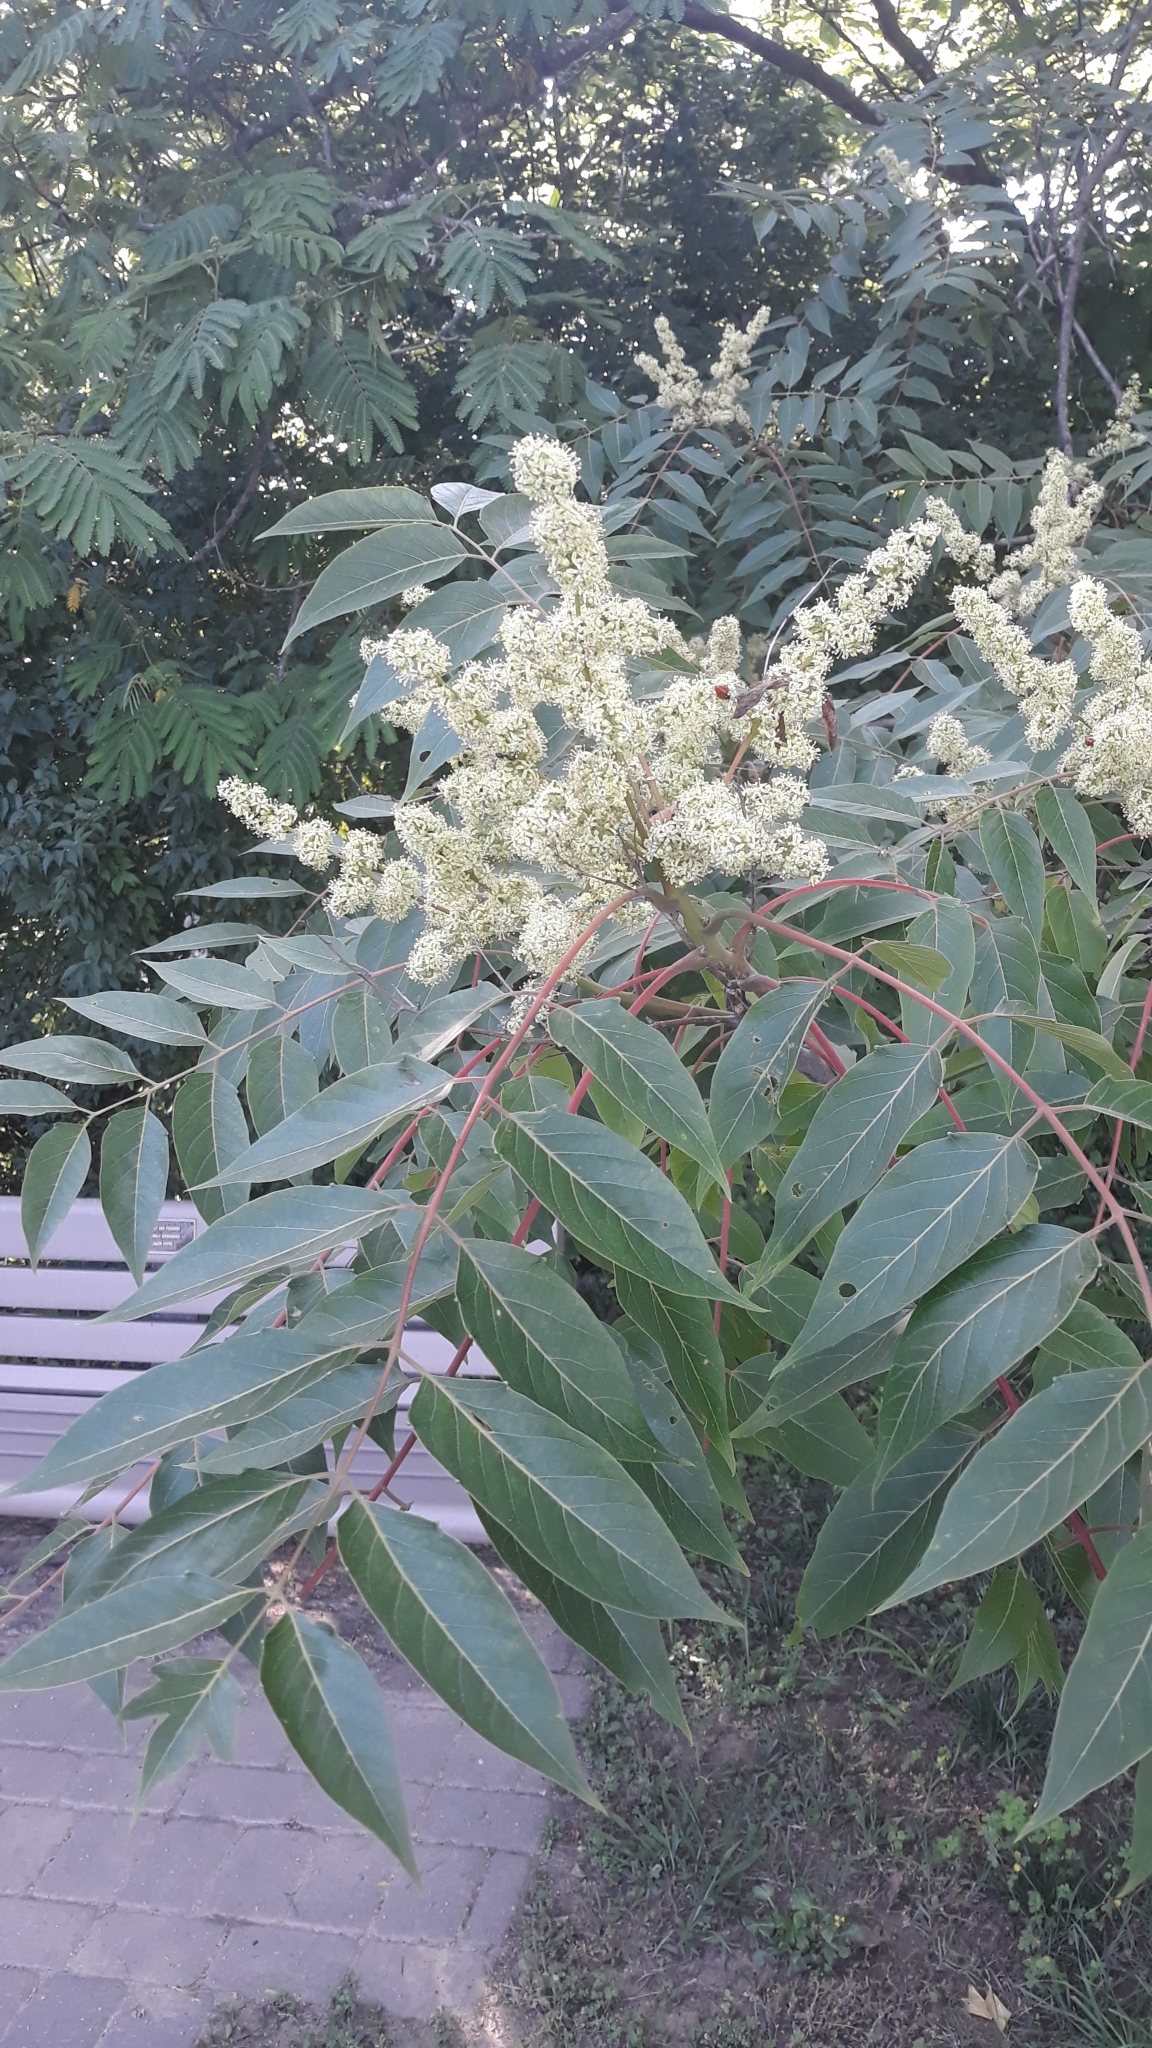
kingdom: Plantae
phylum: Tracheophyta
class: Magnoliopsida
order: Sapindales
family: Simaroubaceae
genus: Ailanthus
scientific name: Ailanthus altissima
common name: Tree-of-heaven
